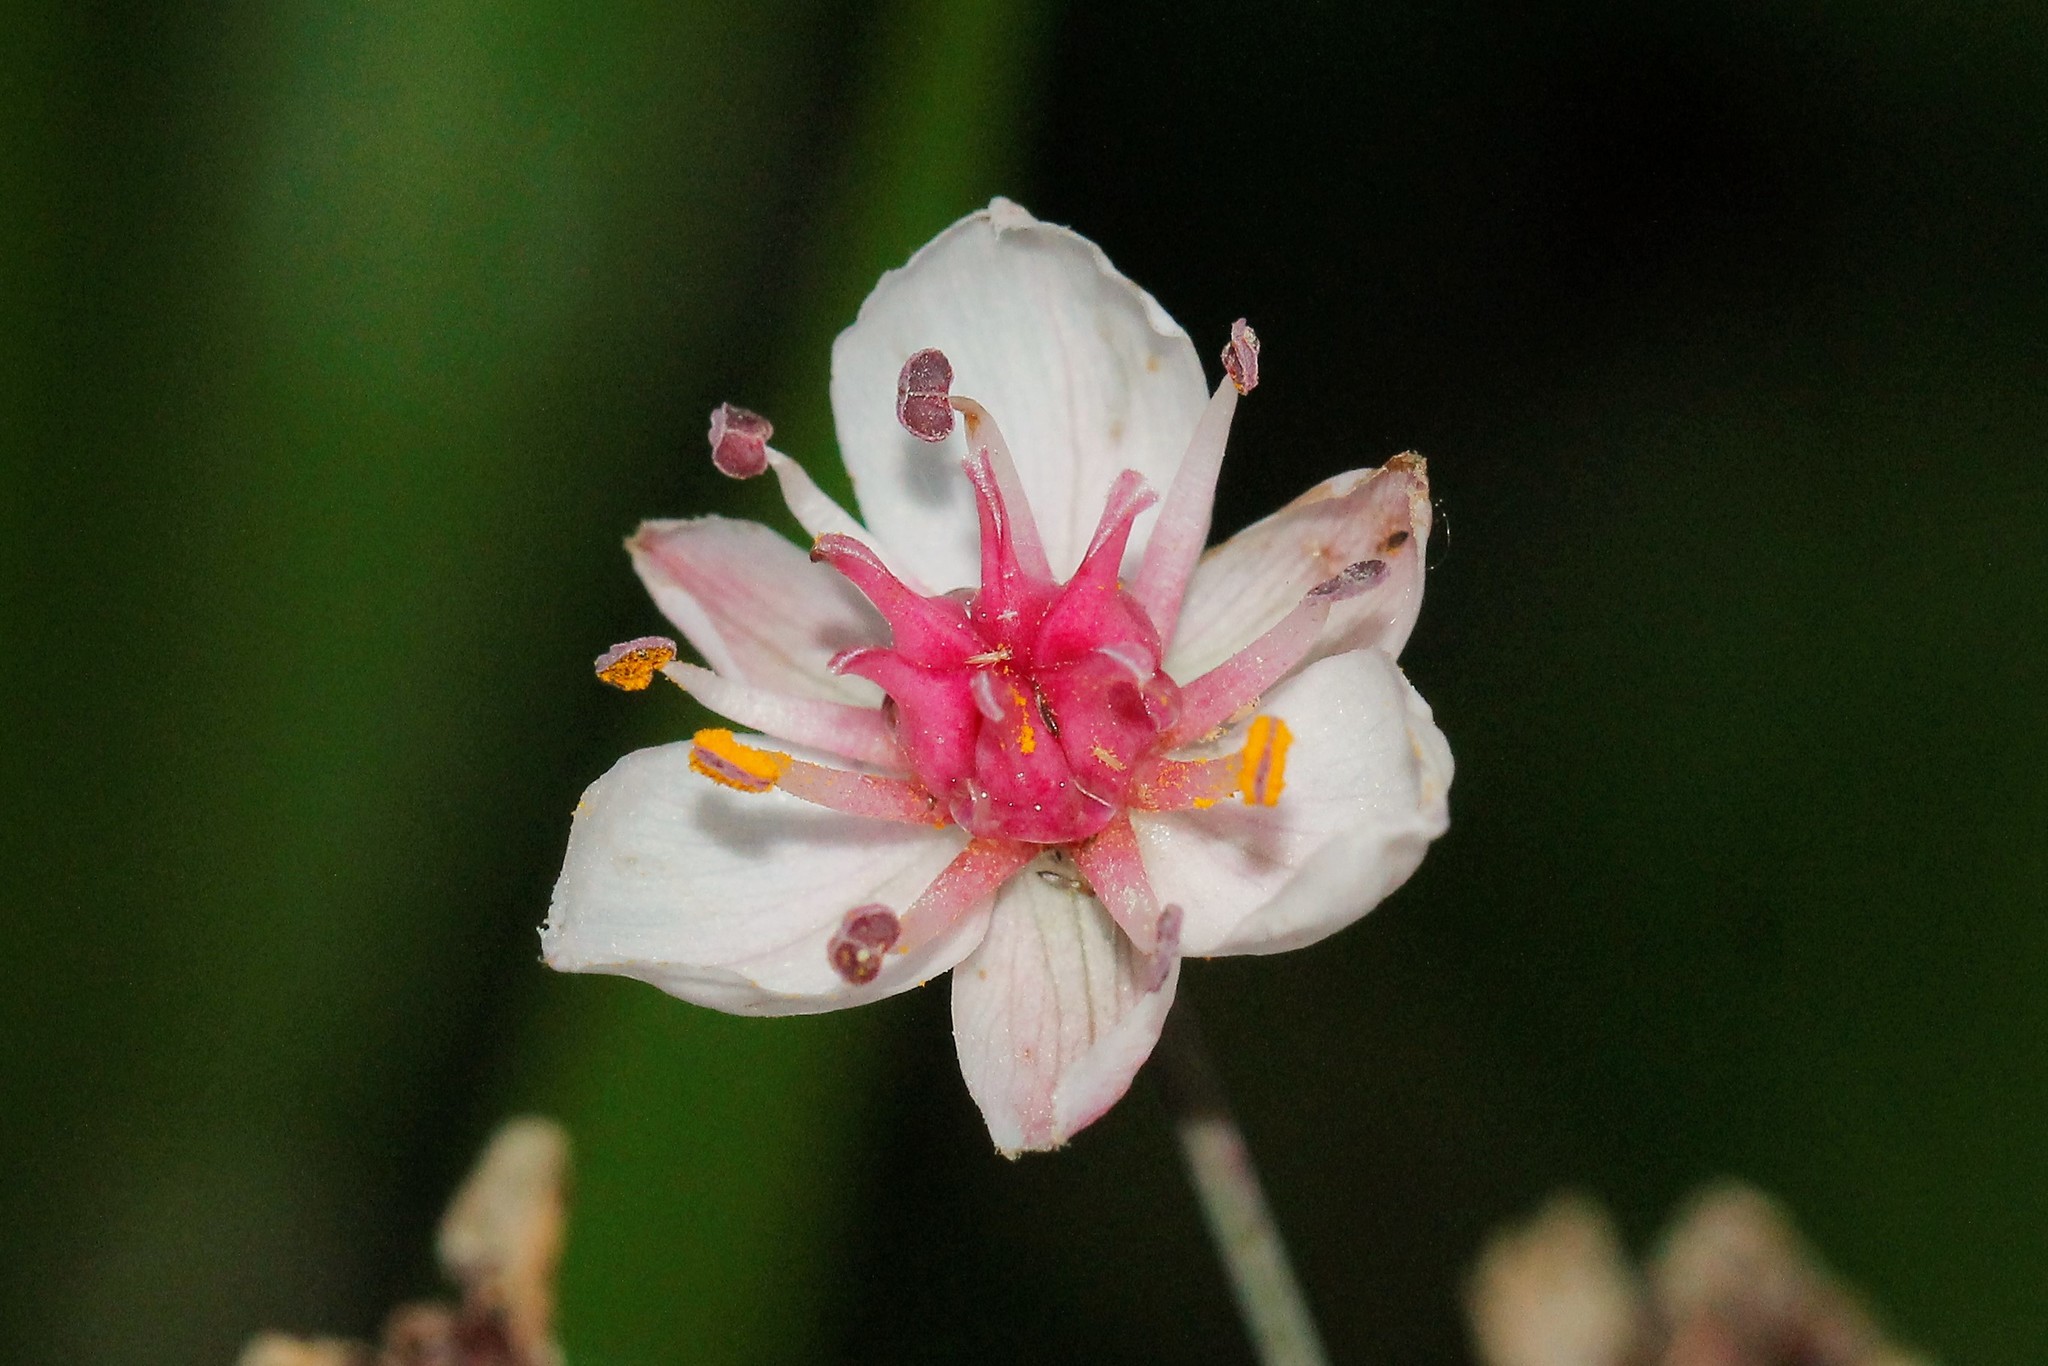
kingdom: Plantae
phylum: Tracheophyta
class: Liliopsida
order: Alismatales
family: Butomaceae
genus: Butomus
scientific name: Butomus umbellatus
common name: Flowering-rush
